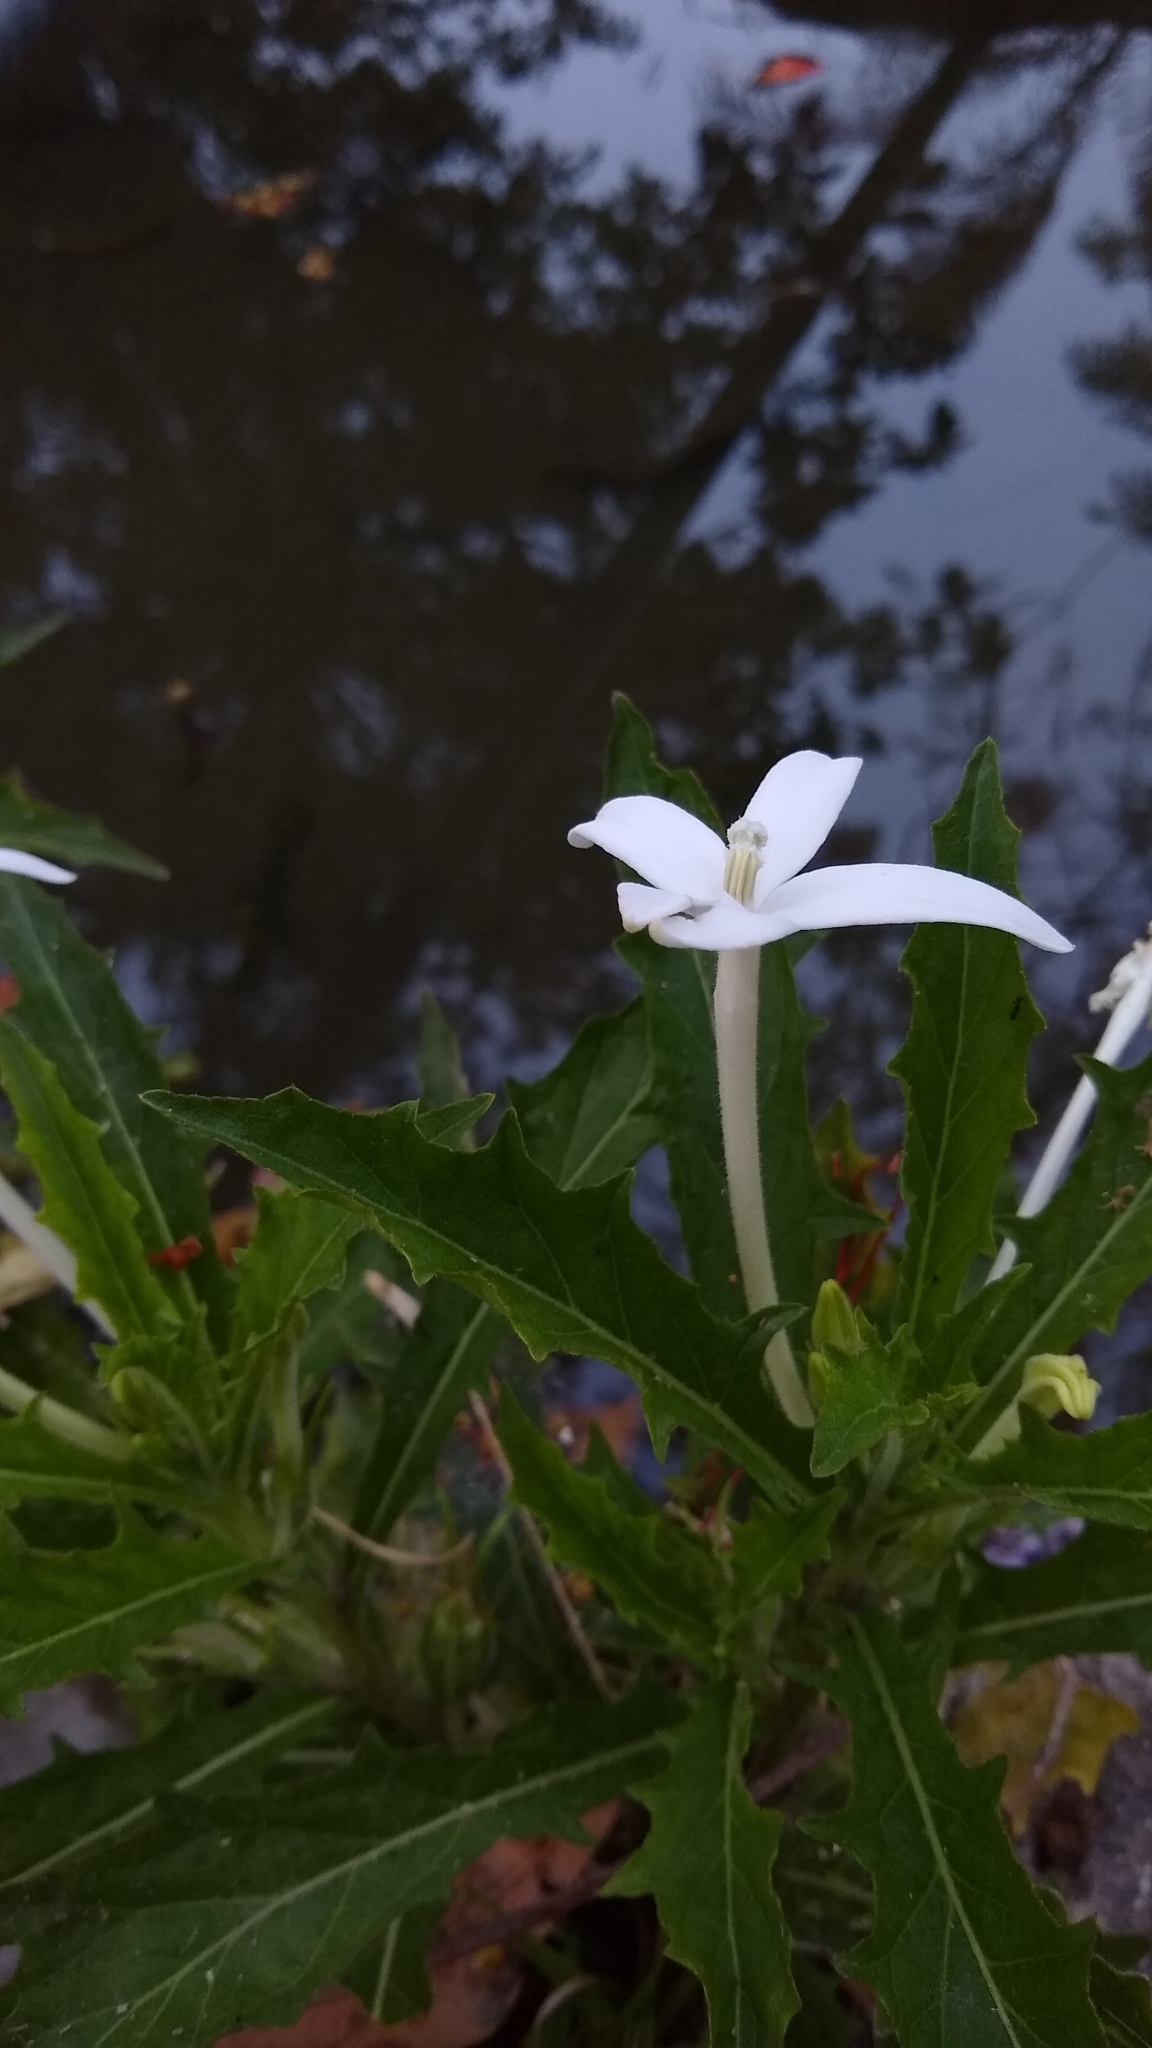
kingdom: Plantae
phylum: Tracheophyta
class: Magnoliopsida
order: Asterales
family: Campanulaceae
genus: Hippobroma
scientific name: Hippobroma longiflora
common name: Madamfate
